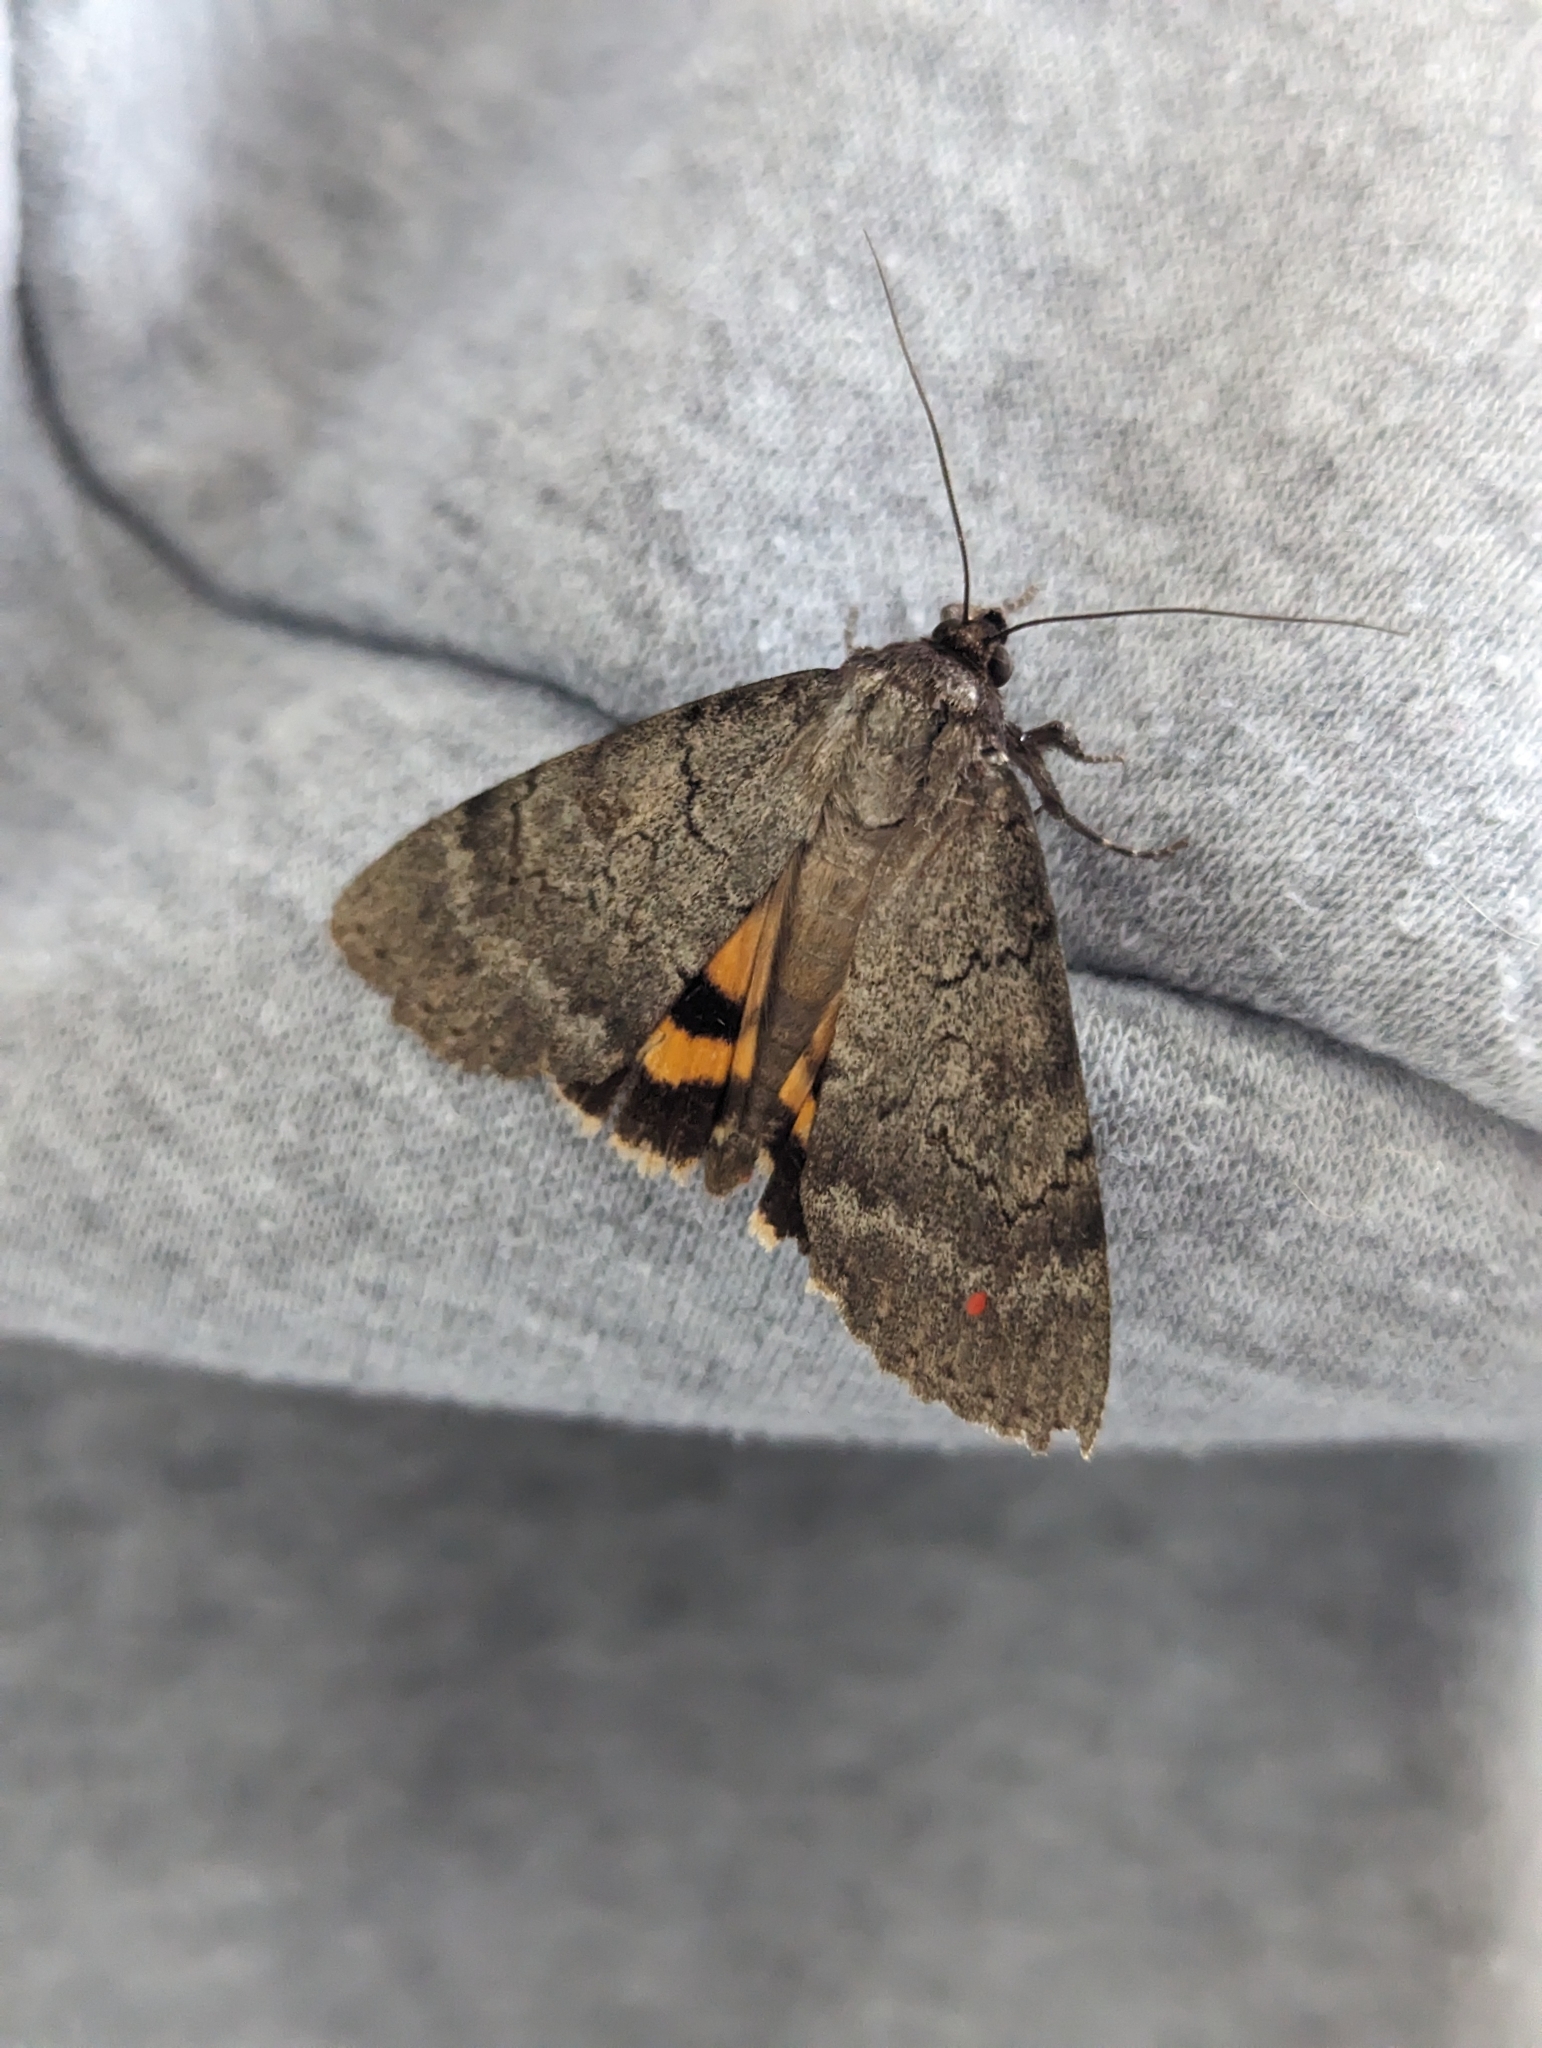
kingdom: Animalia
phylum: Arthropoda
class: Insecta
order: Lepidoptera
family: Erebidae
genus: Catocala
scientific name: Catocala serena
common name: Serene underwing
